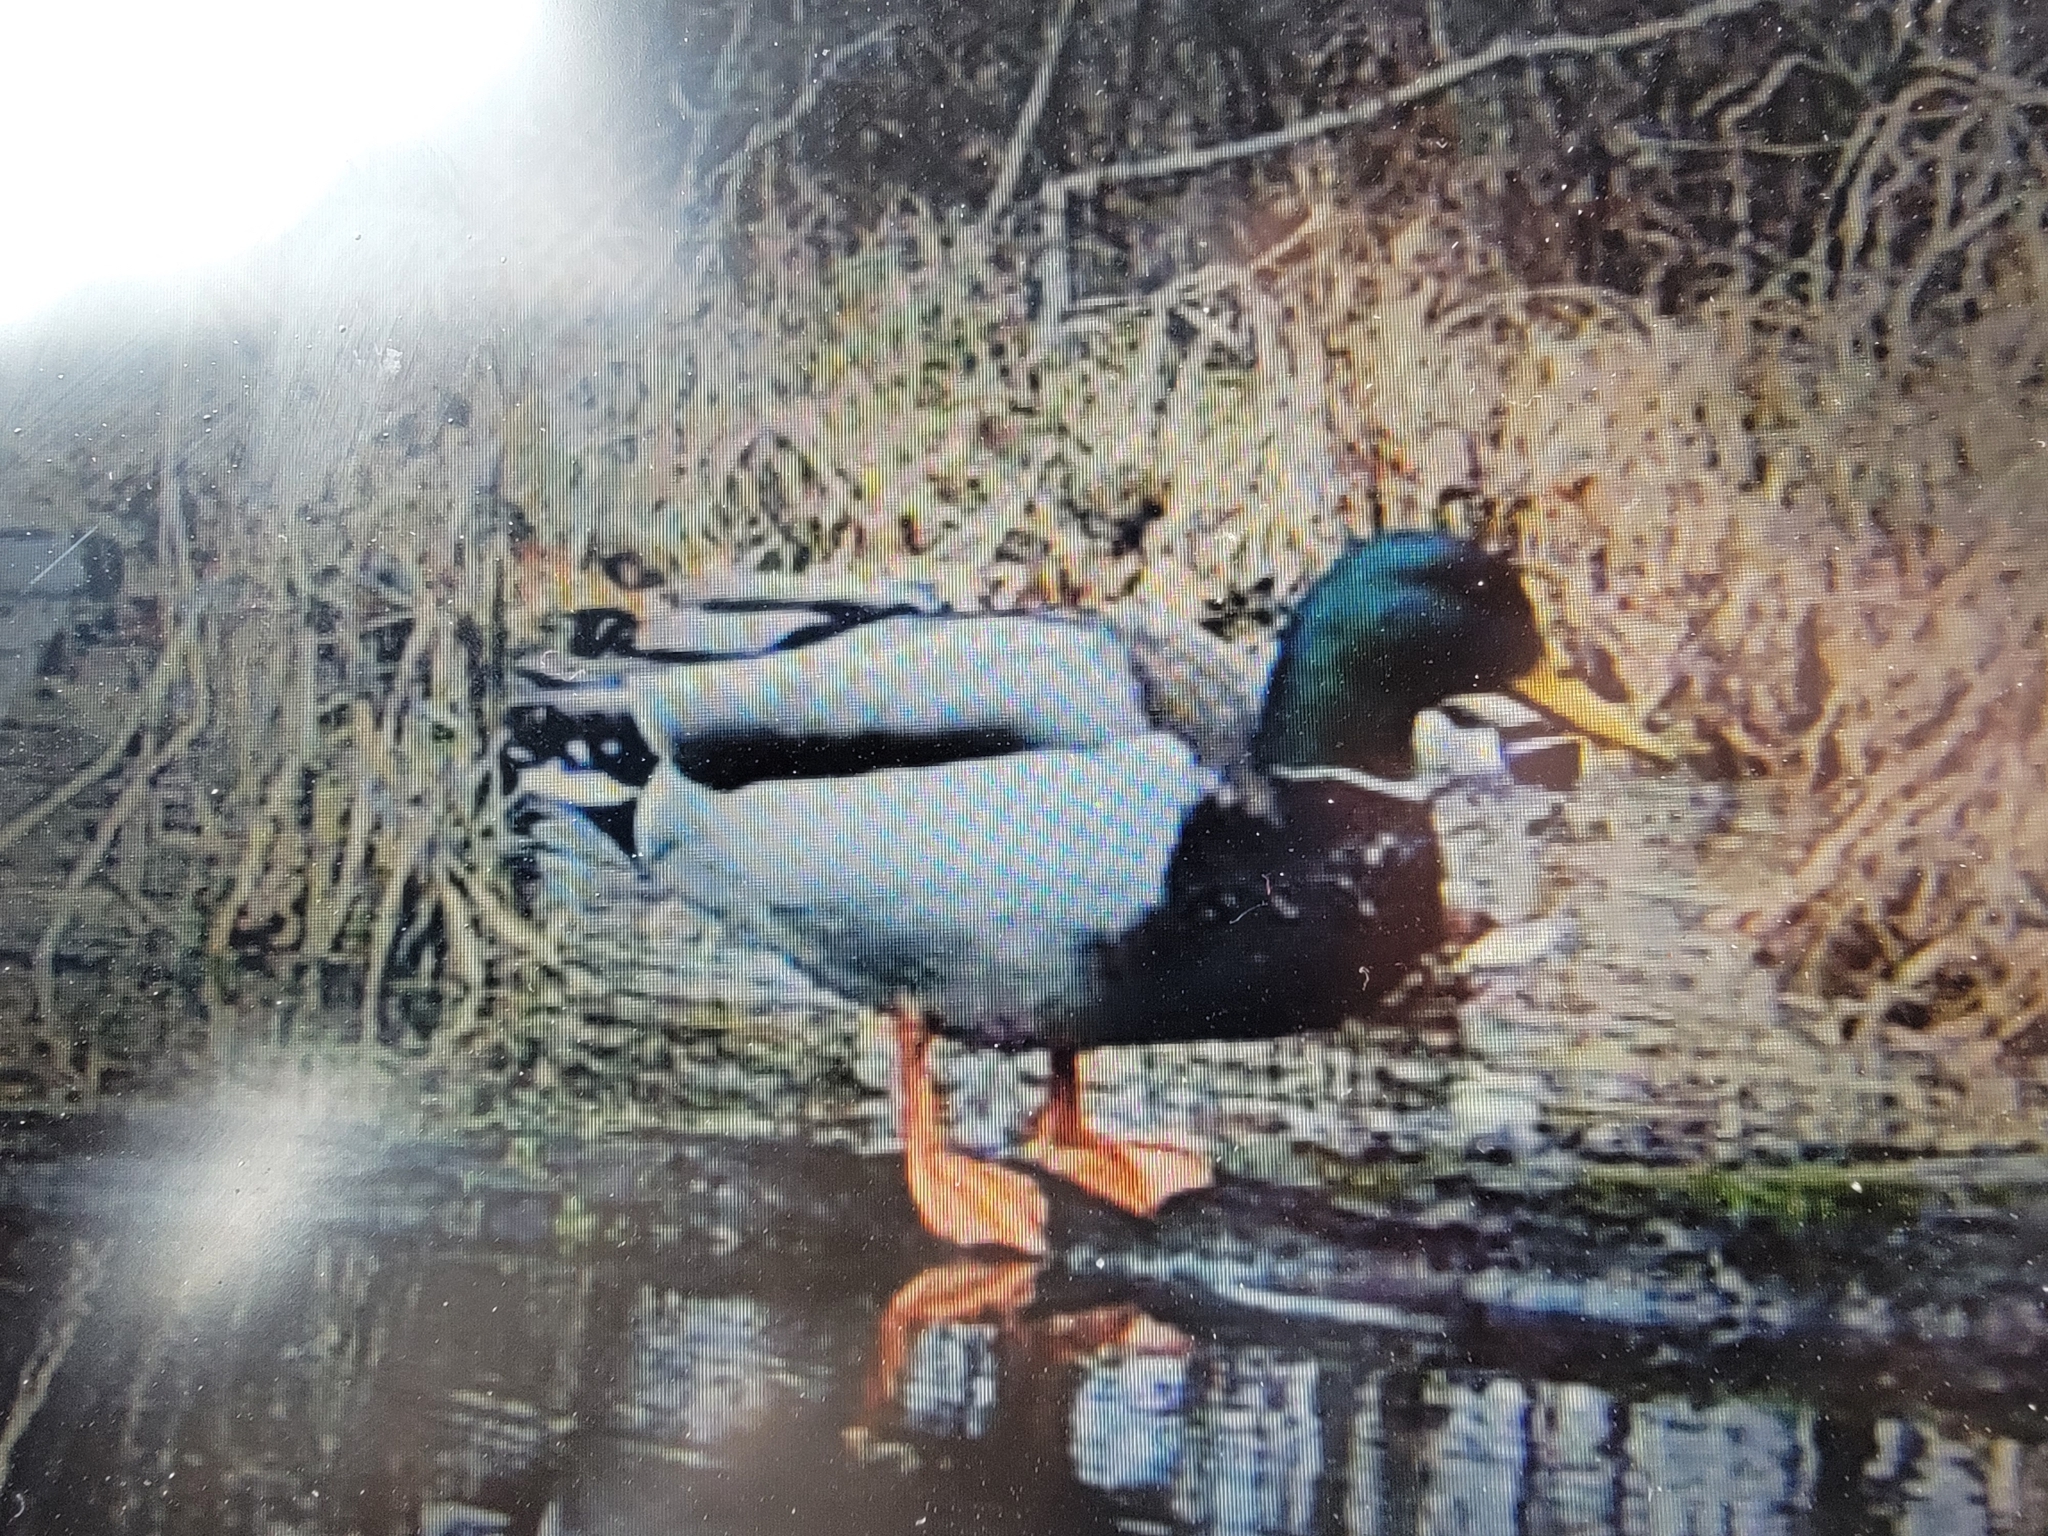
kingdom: Animalia
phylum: Chordata
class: Aves
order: Anseriformes
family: Anatidae
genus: Anas
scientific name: Anas platyrhynchos
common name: Mallard
